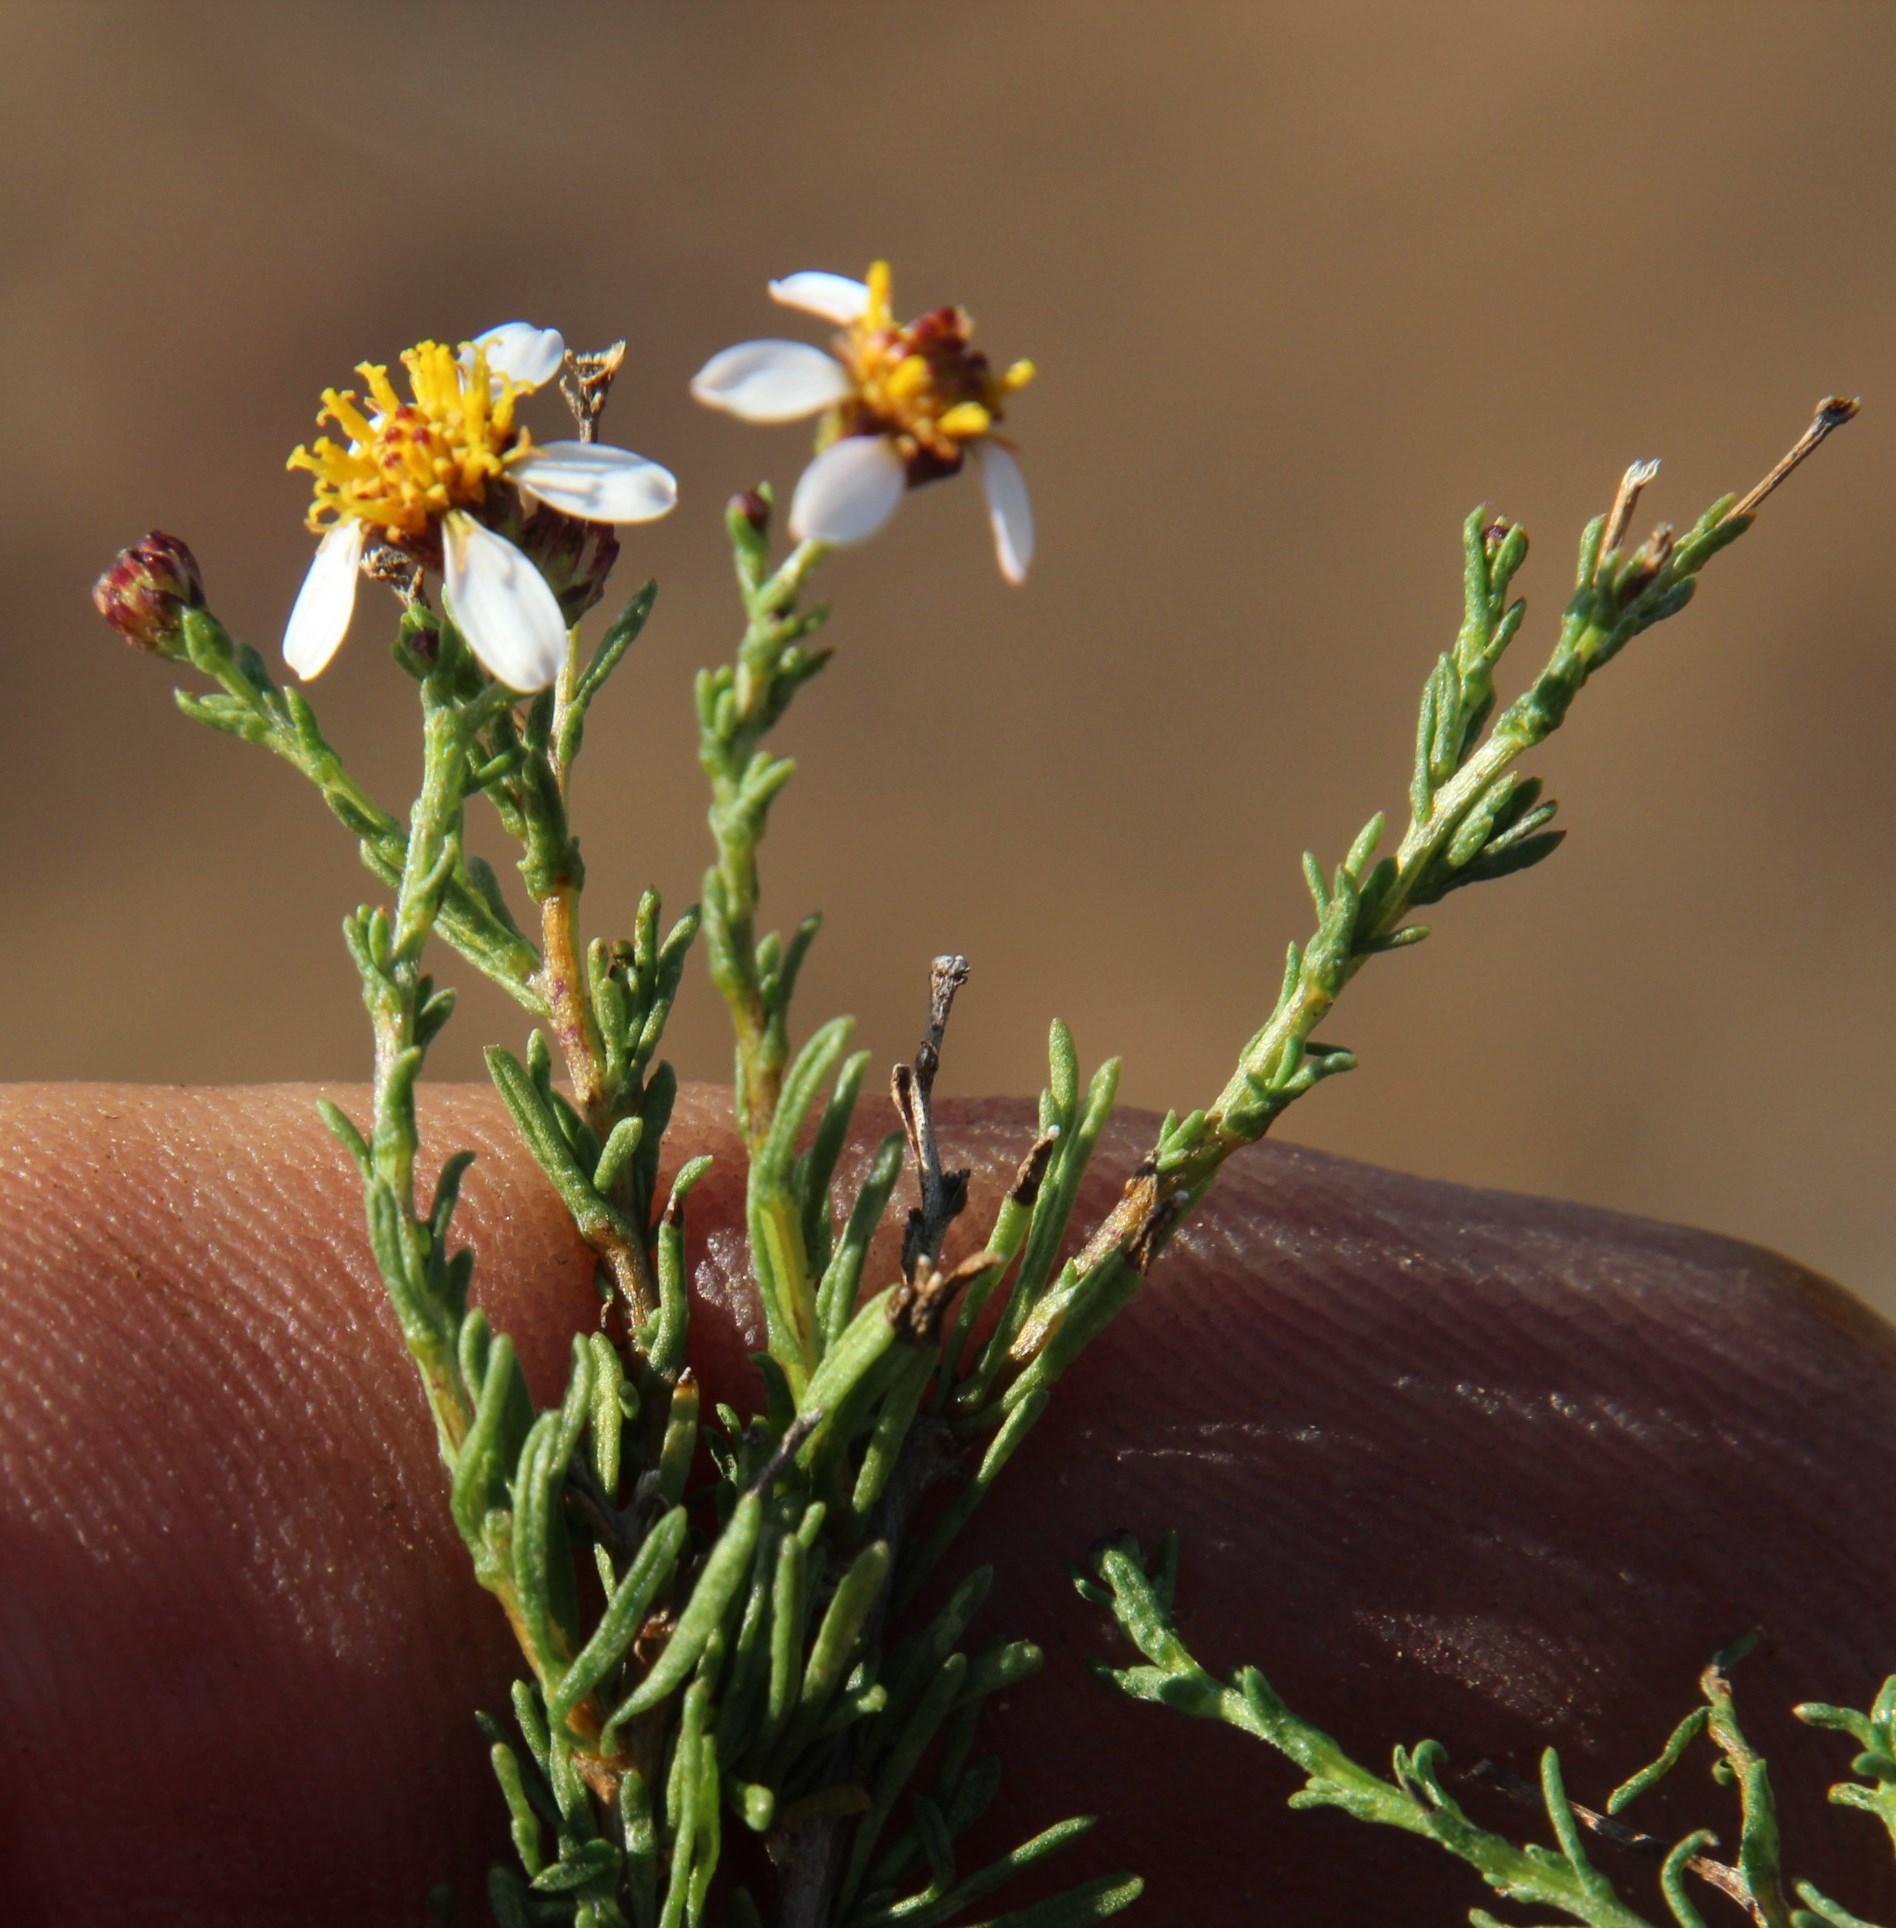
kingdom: Plantae
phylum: Tracheophyta
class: Magnoliopsida
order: Asterales
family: Asteraceae
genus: Phymaspermum
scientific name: Phymaspermum parvifolium
